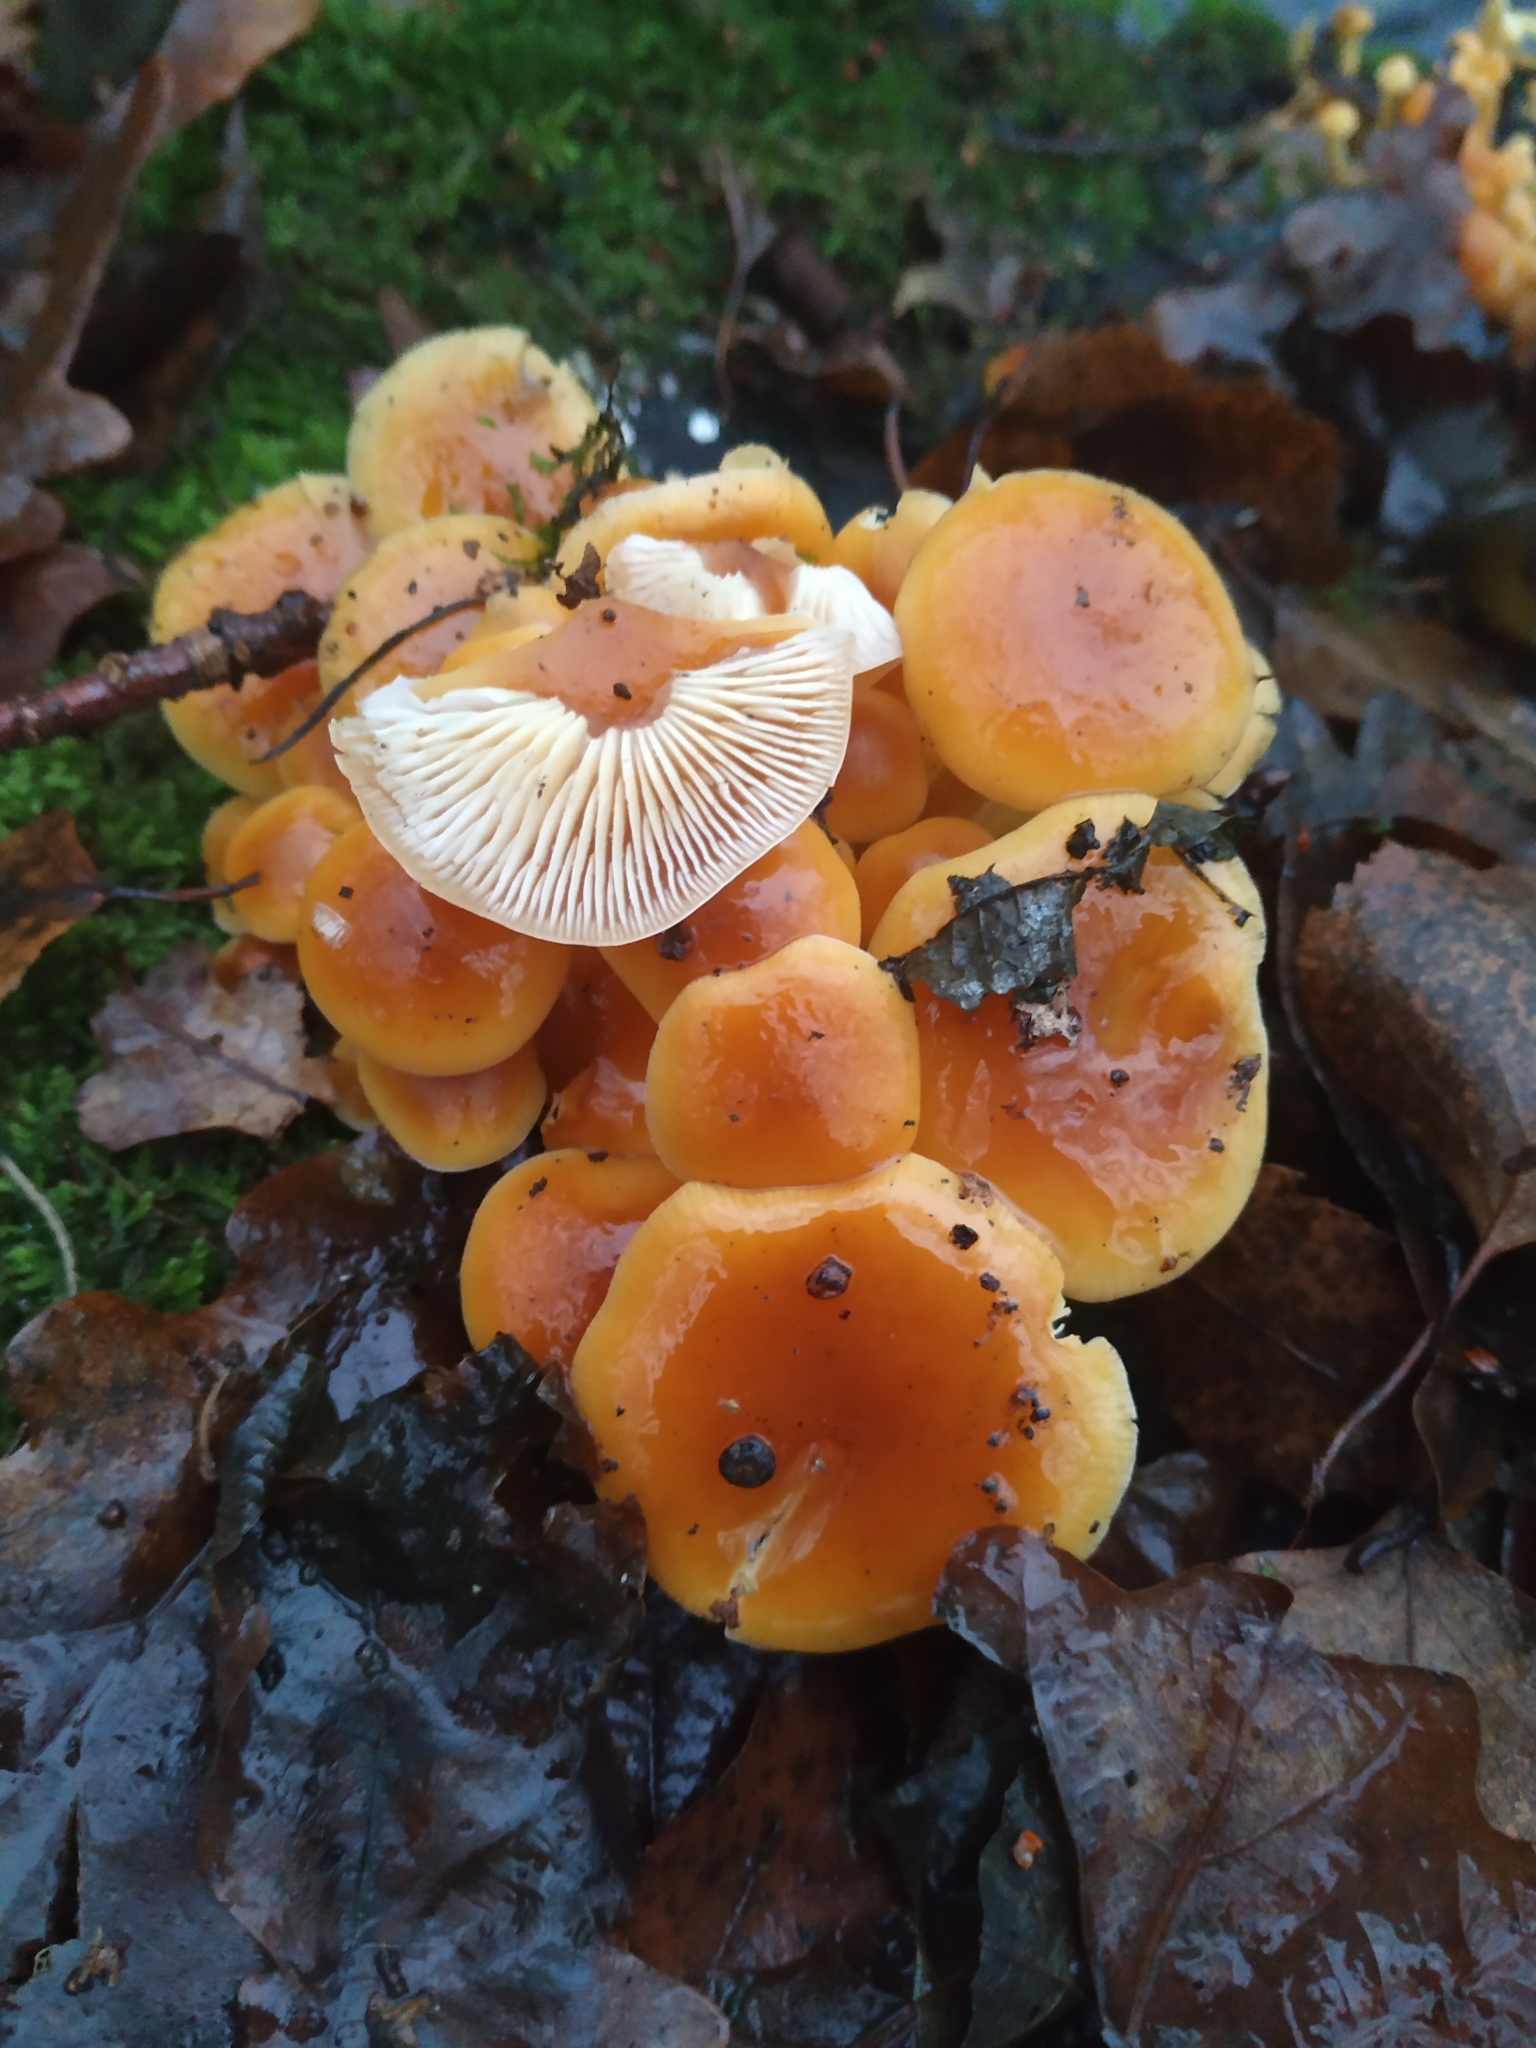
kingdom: Fungi
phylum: Basidiomycota
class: Agaricomycetes
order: Agaricales
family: Physalacriaceae
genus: Flammulina
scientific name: Flammulina
